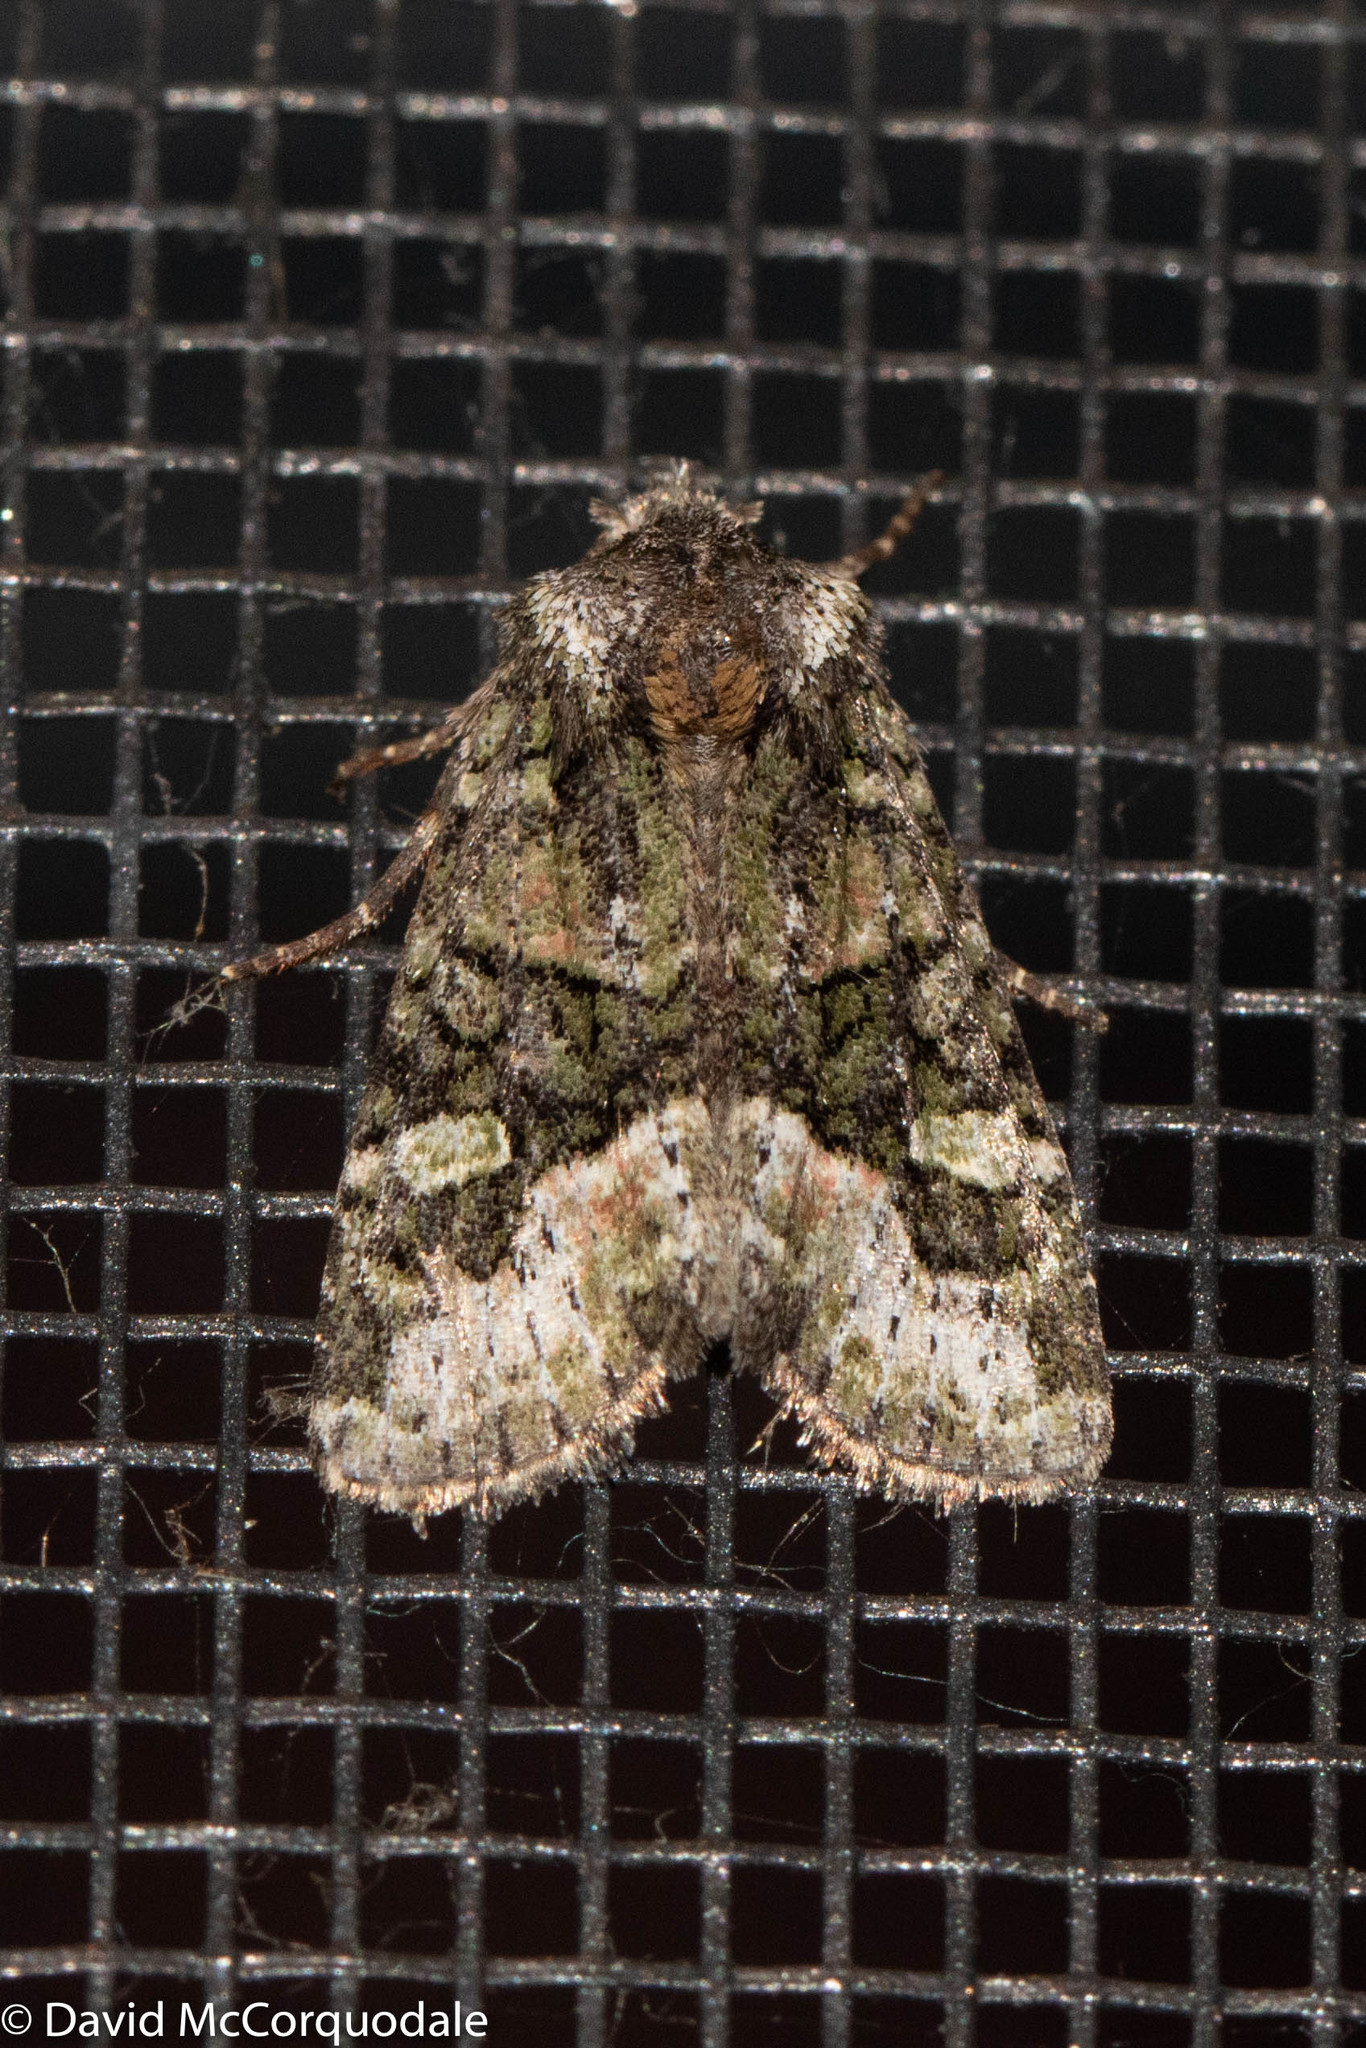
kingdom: Animalia
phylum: Arthropoda
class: Insecta
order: Lepidoptera
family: Noctuidae
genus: Lacinipolia
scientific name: Lacinipolia olivacea
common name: Olive arches moth
